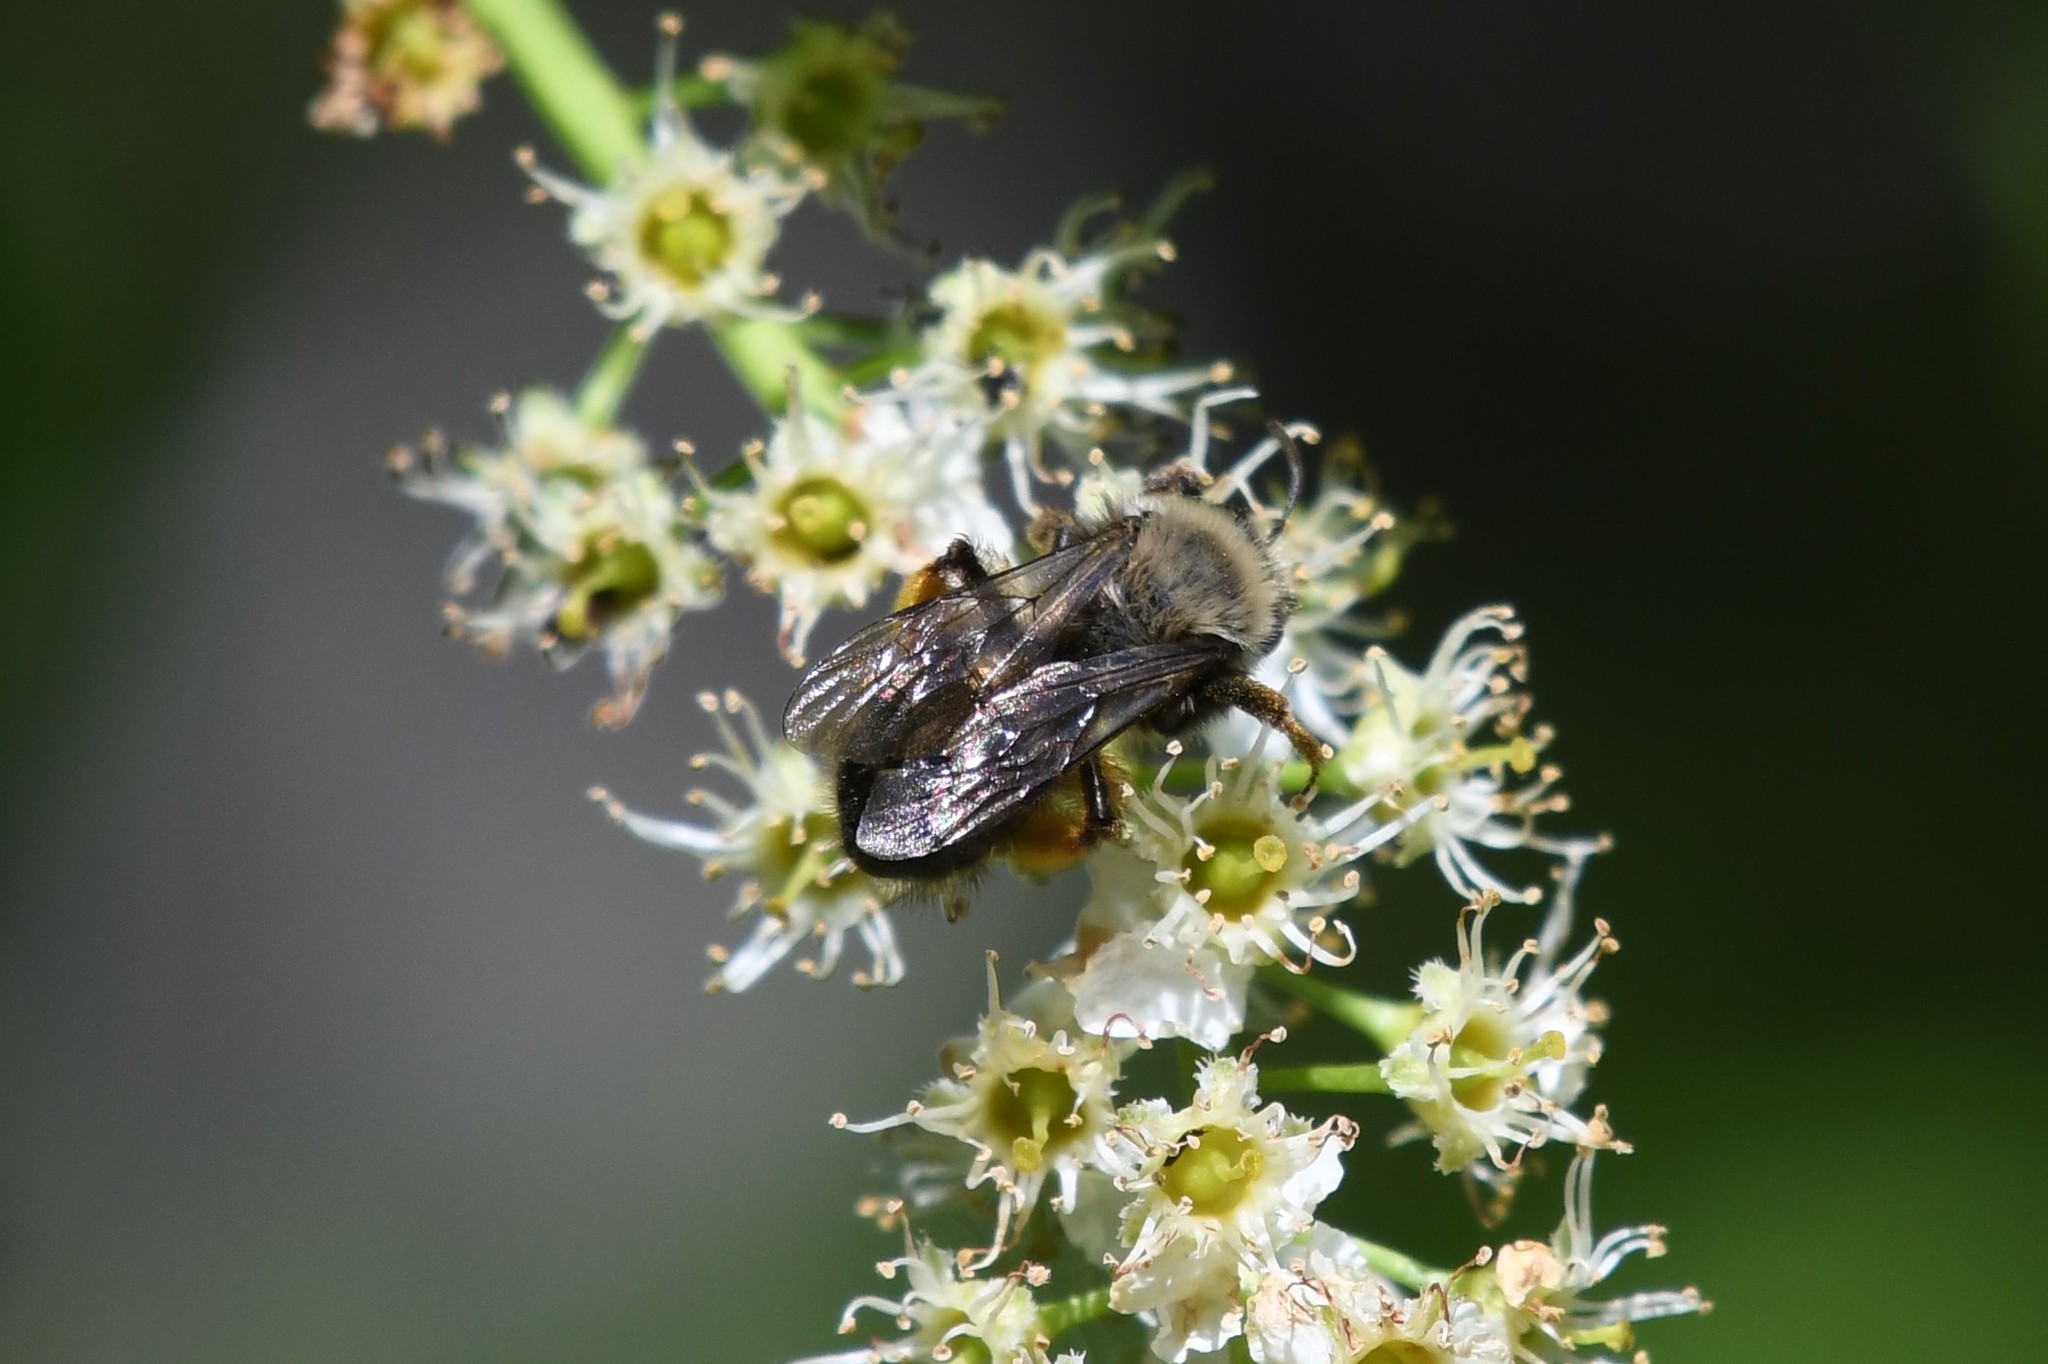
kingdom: Animalia
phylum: Arthropoda
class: Insecta
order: Hymenoptera
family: Andrenidae
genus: Andrena
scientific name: Andrena clarkella
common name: Clarke's mining bee
